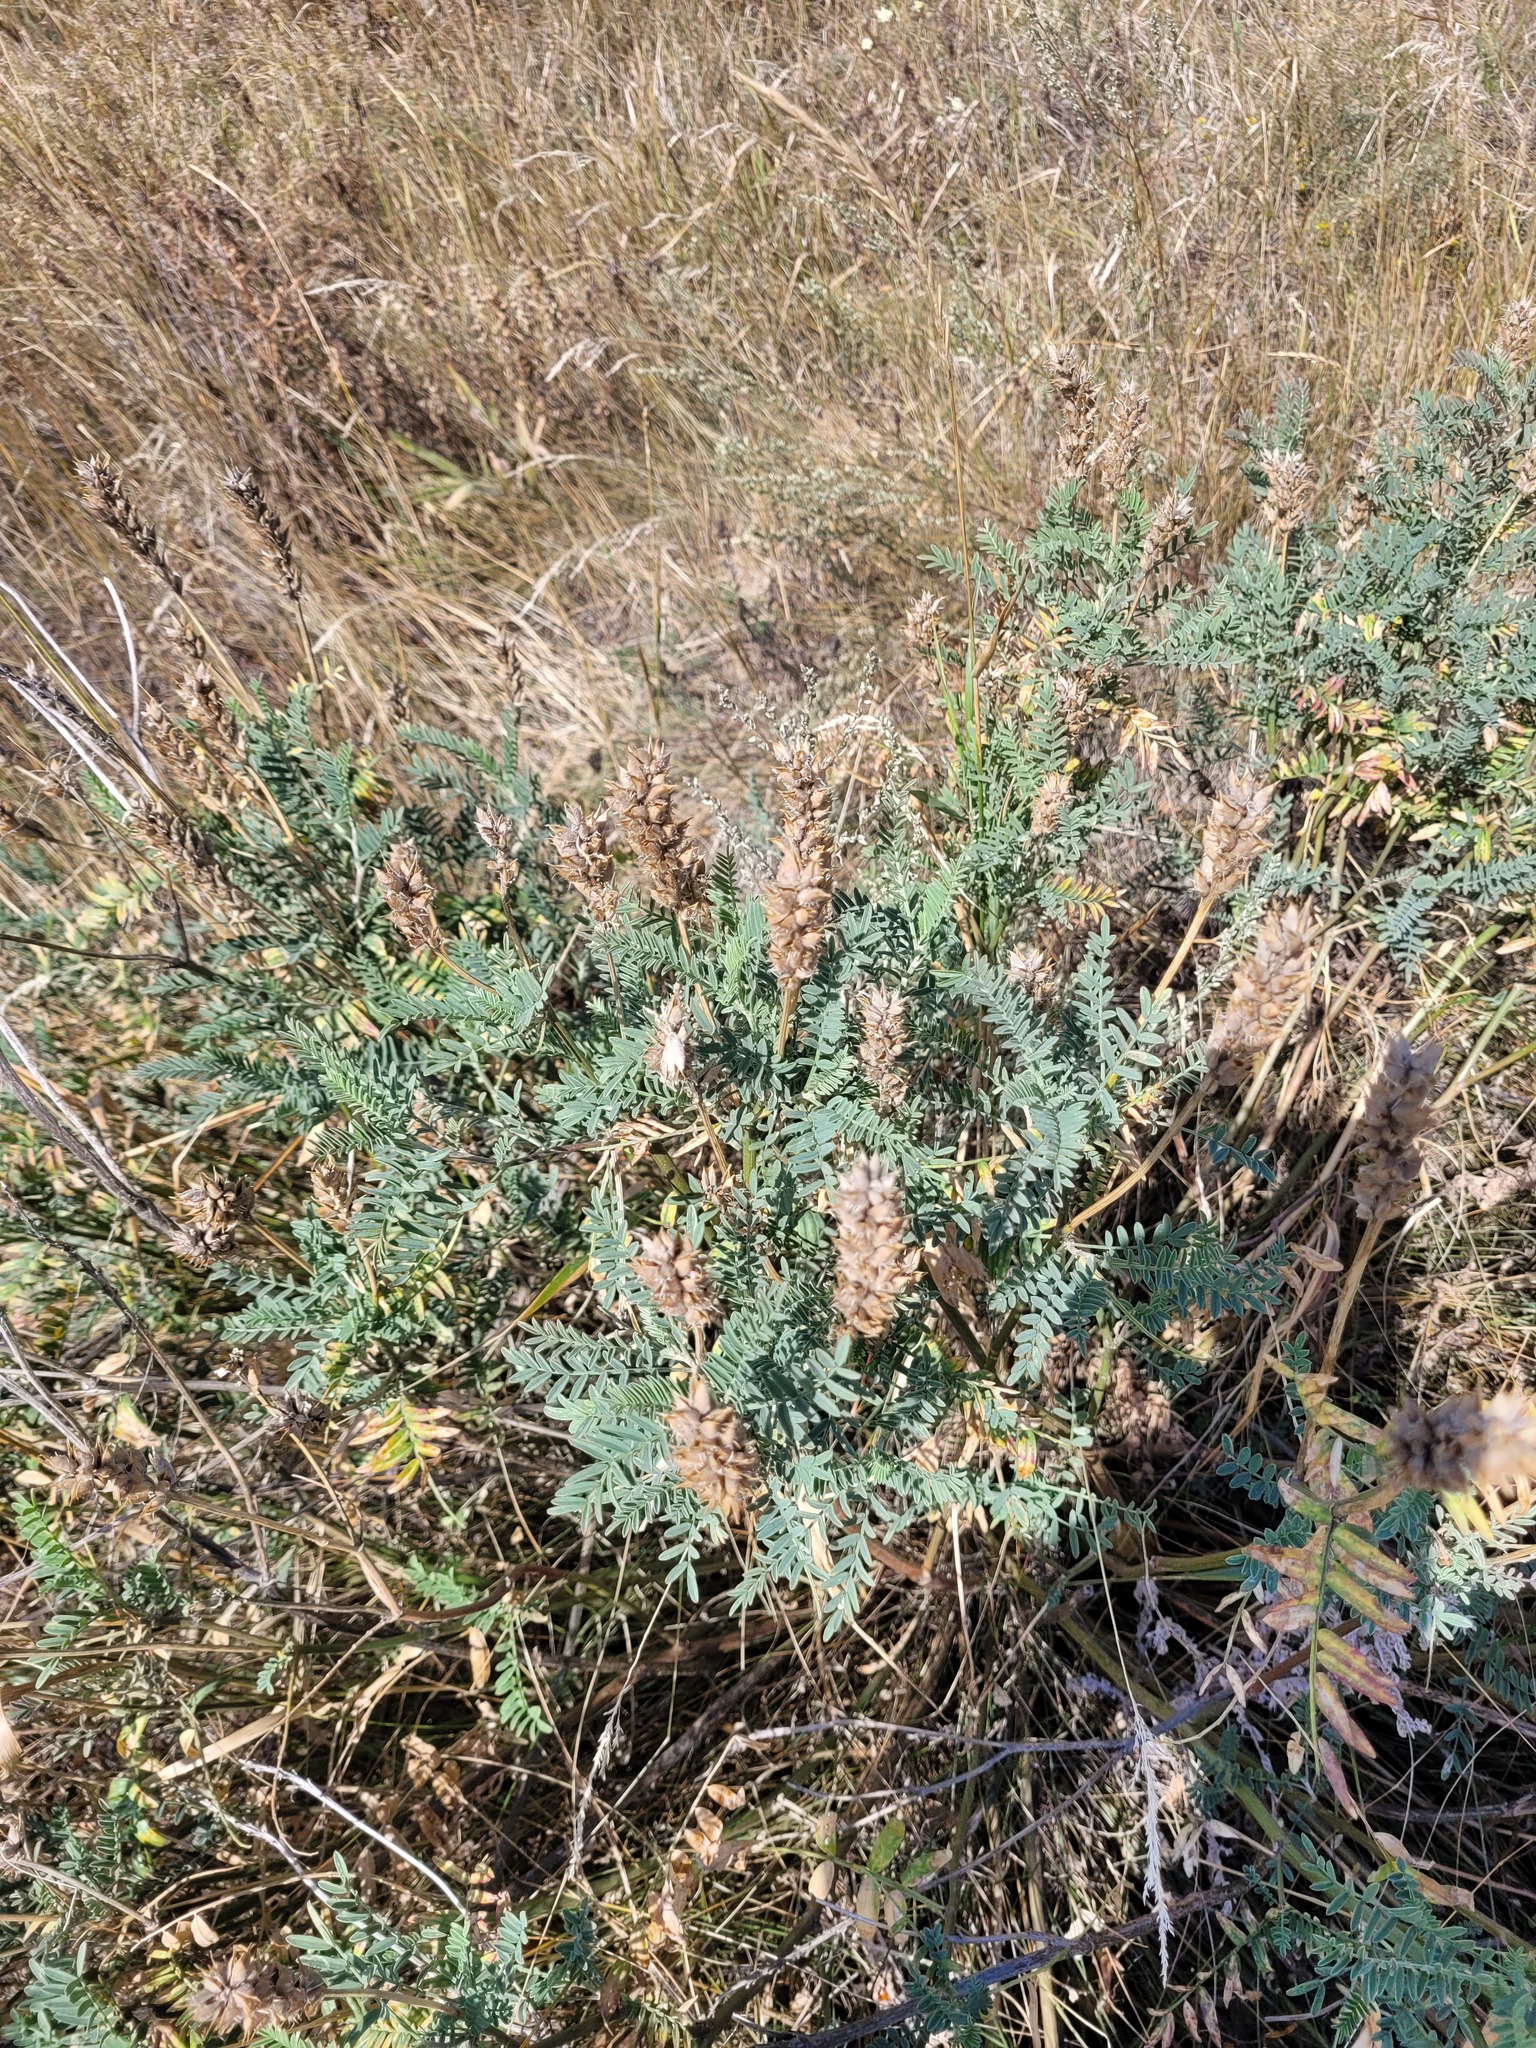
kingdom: Plantae
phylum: Tracheophyta
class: Magnoliopsida
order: Fabales
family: Fabaceae
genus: Astragalus
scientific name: Astragalus onobrychis
